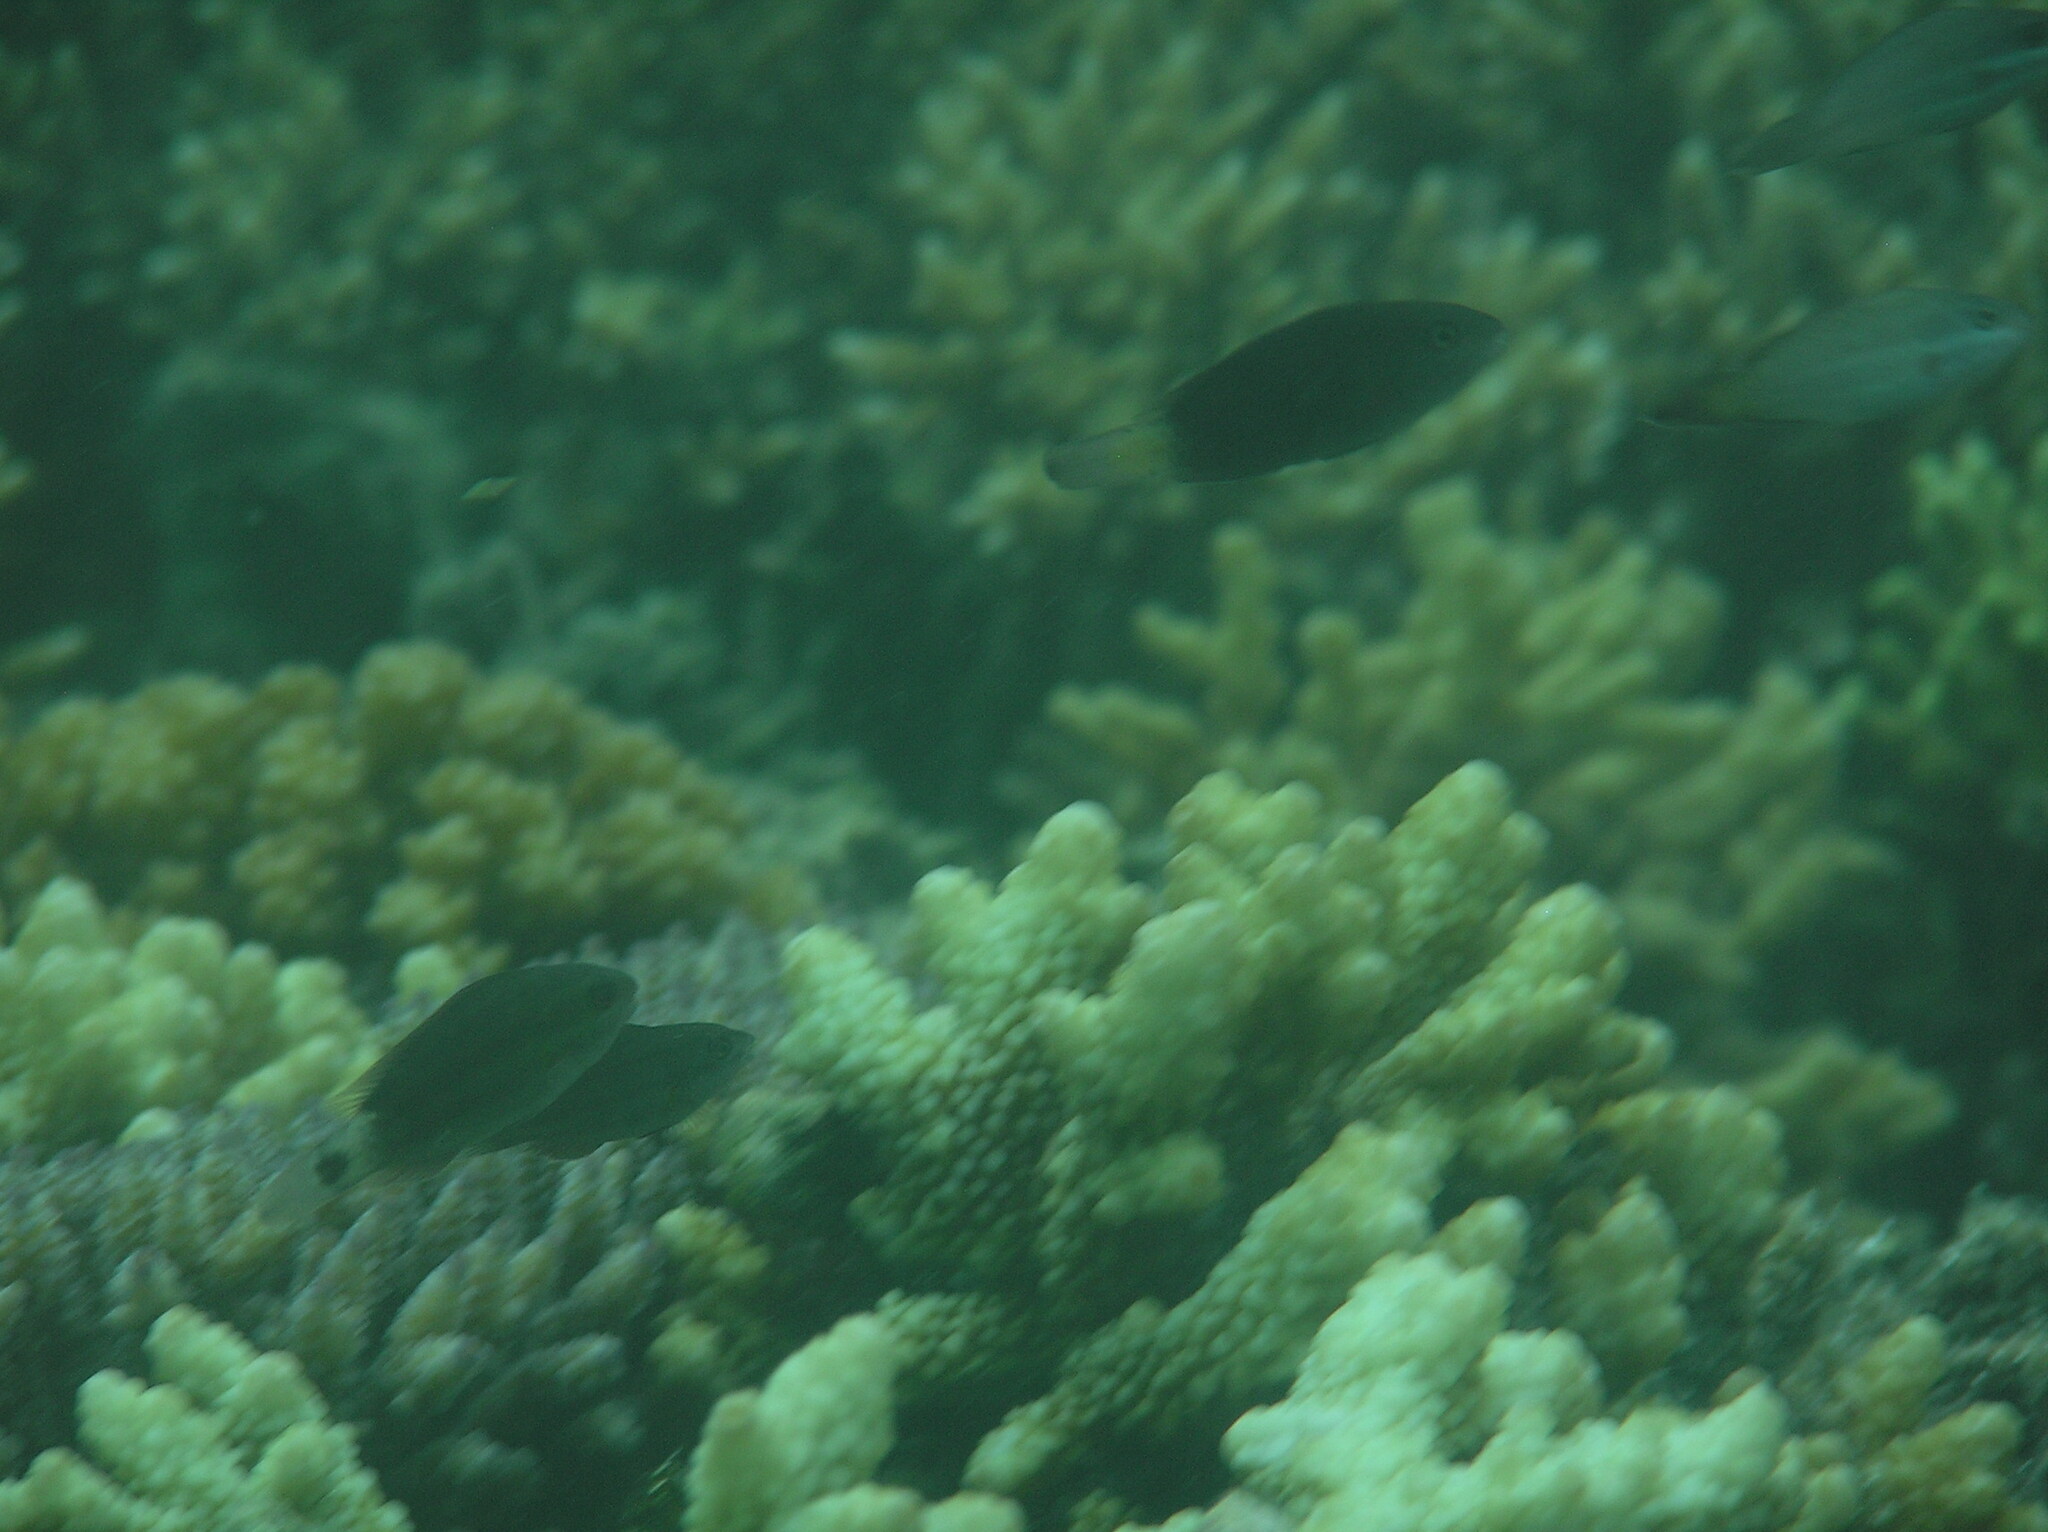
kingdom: Animalia
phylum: Chordata
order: Perciformes
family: Scaridae
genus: Chlorurus
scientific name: Chlorurus spilurus
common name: Bullethead parrotfish
